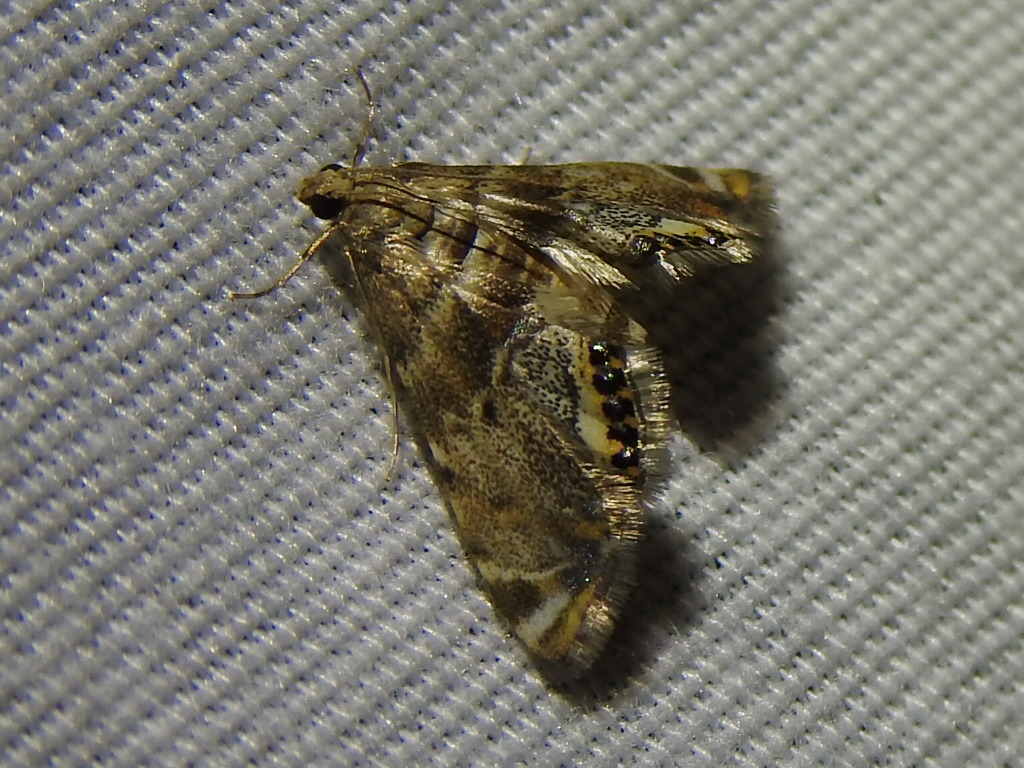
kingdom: Animalia
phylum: Arthropoda
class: Insecta
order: Lepidoptera
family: Crambidae
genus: Petrophila
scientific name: Petrophila fulicalis
